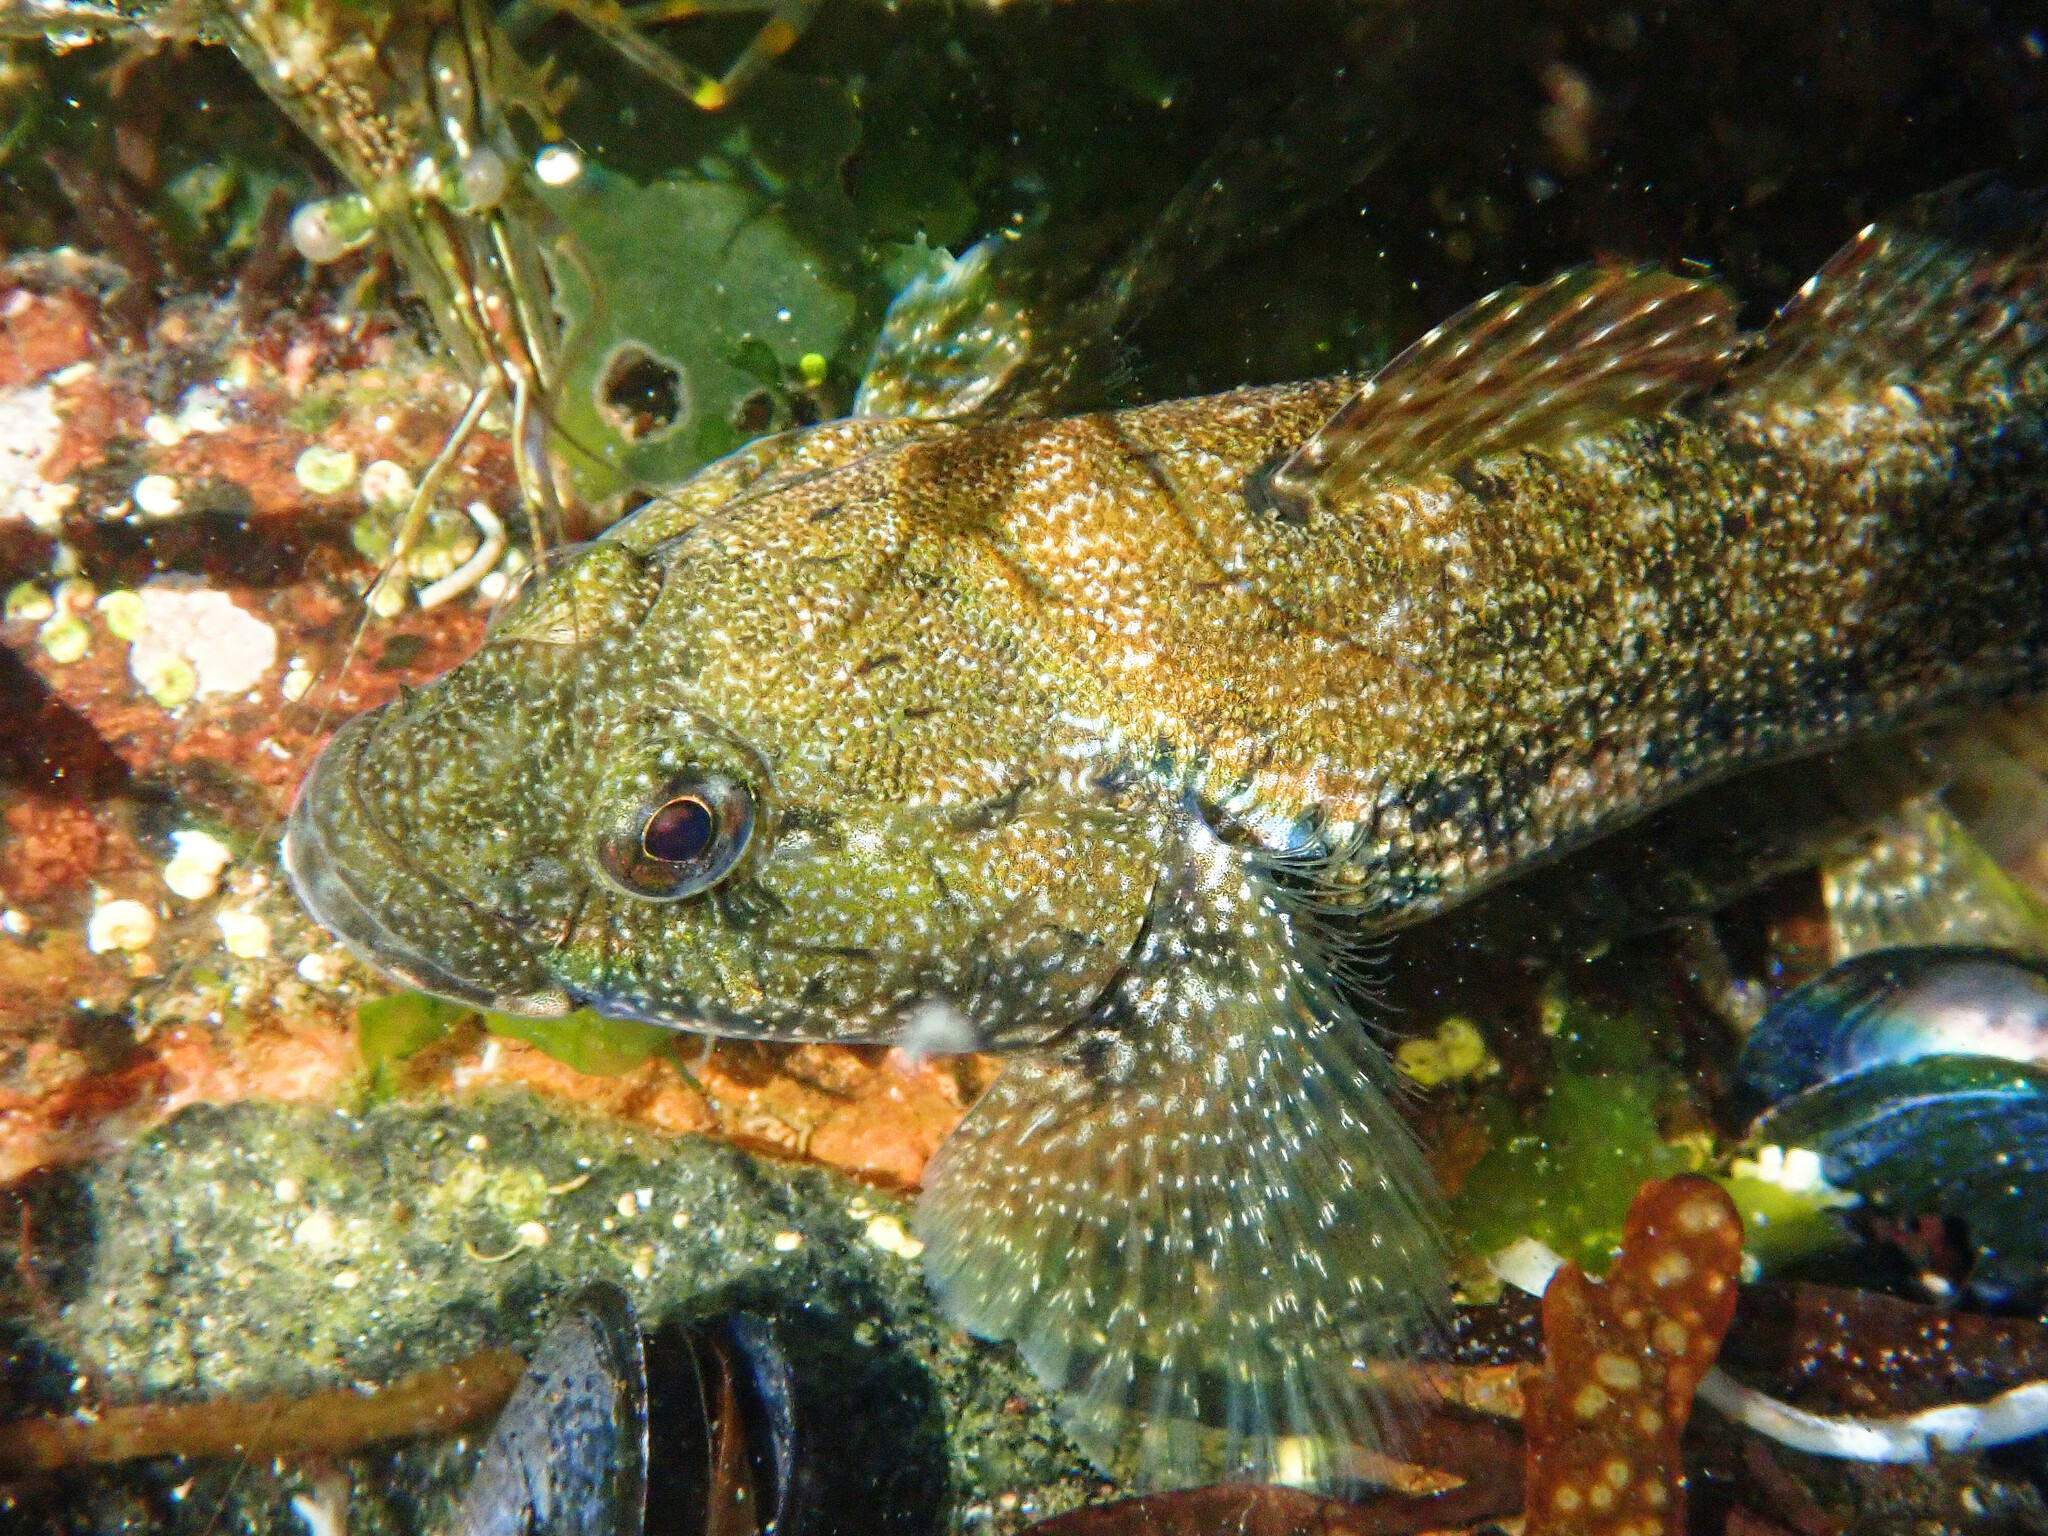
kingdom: Animalia
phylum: Chordata
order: Perciformes
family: Gobiidae
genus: Gobius
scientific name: Gobius cobitis
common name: Giant goby
